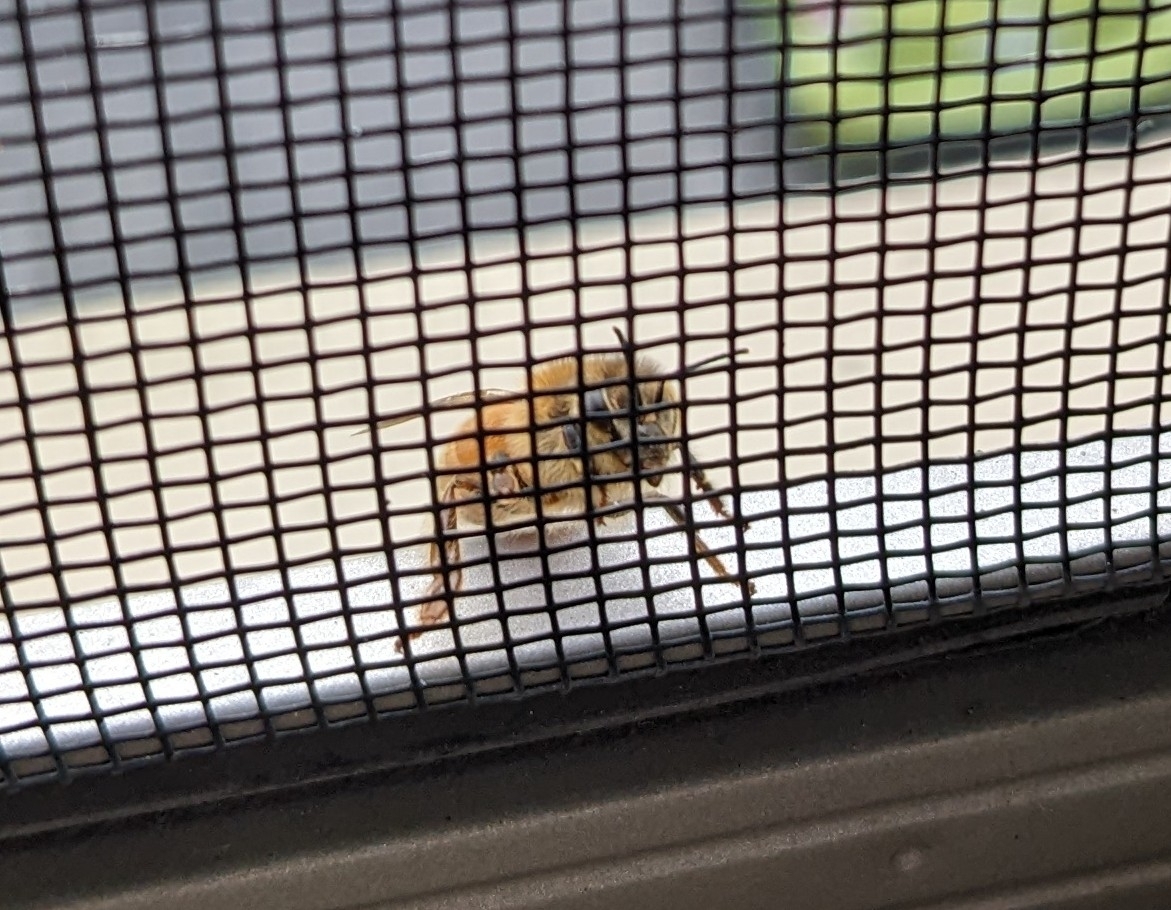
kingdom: Animalia
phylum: Arthropoda
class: Insecta
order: Hymenoptera
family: Apidae
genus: Apis
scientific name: Apis mellifera
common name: Honey bee
